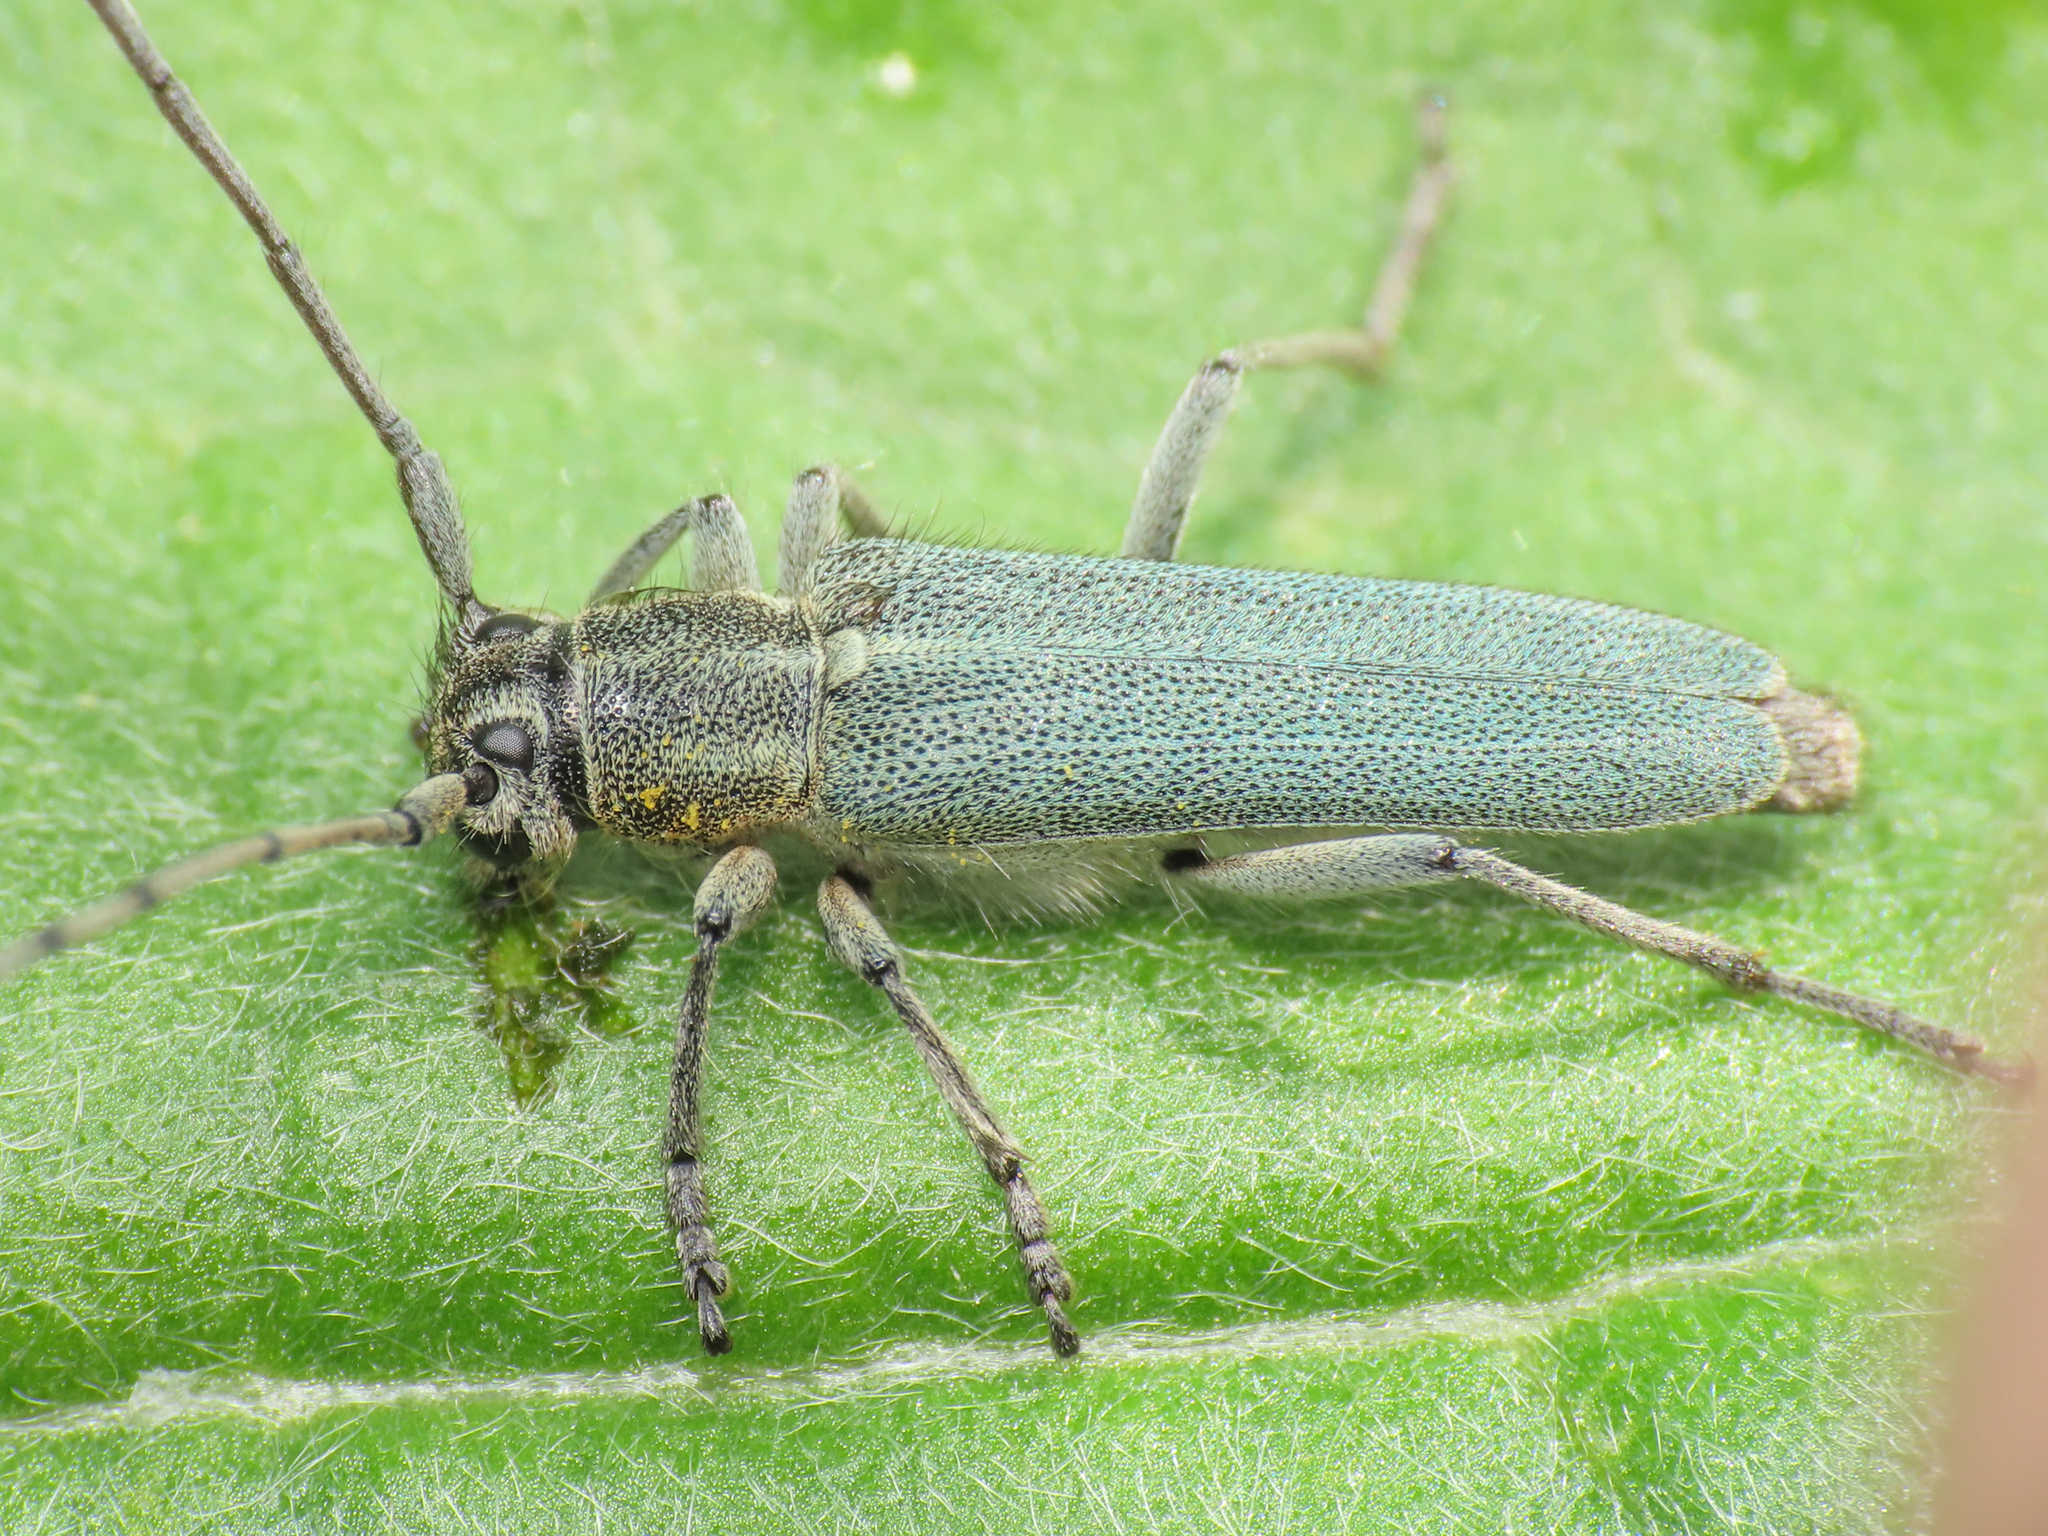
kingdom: Animalia
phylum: Arthropoda
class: Insecta
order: Coleoptera
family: Cerambycidae
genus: Phytoecia
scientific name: Phytoecia coerulescens
